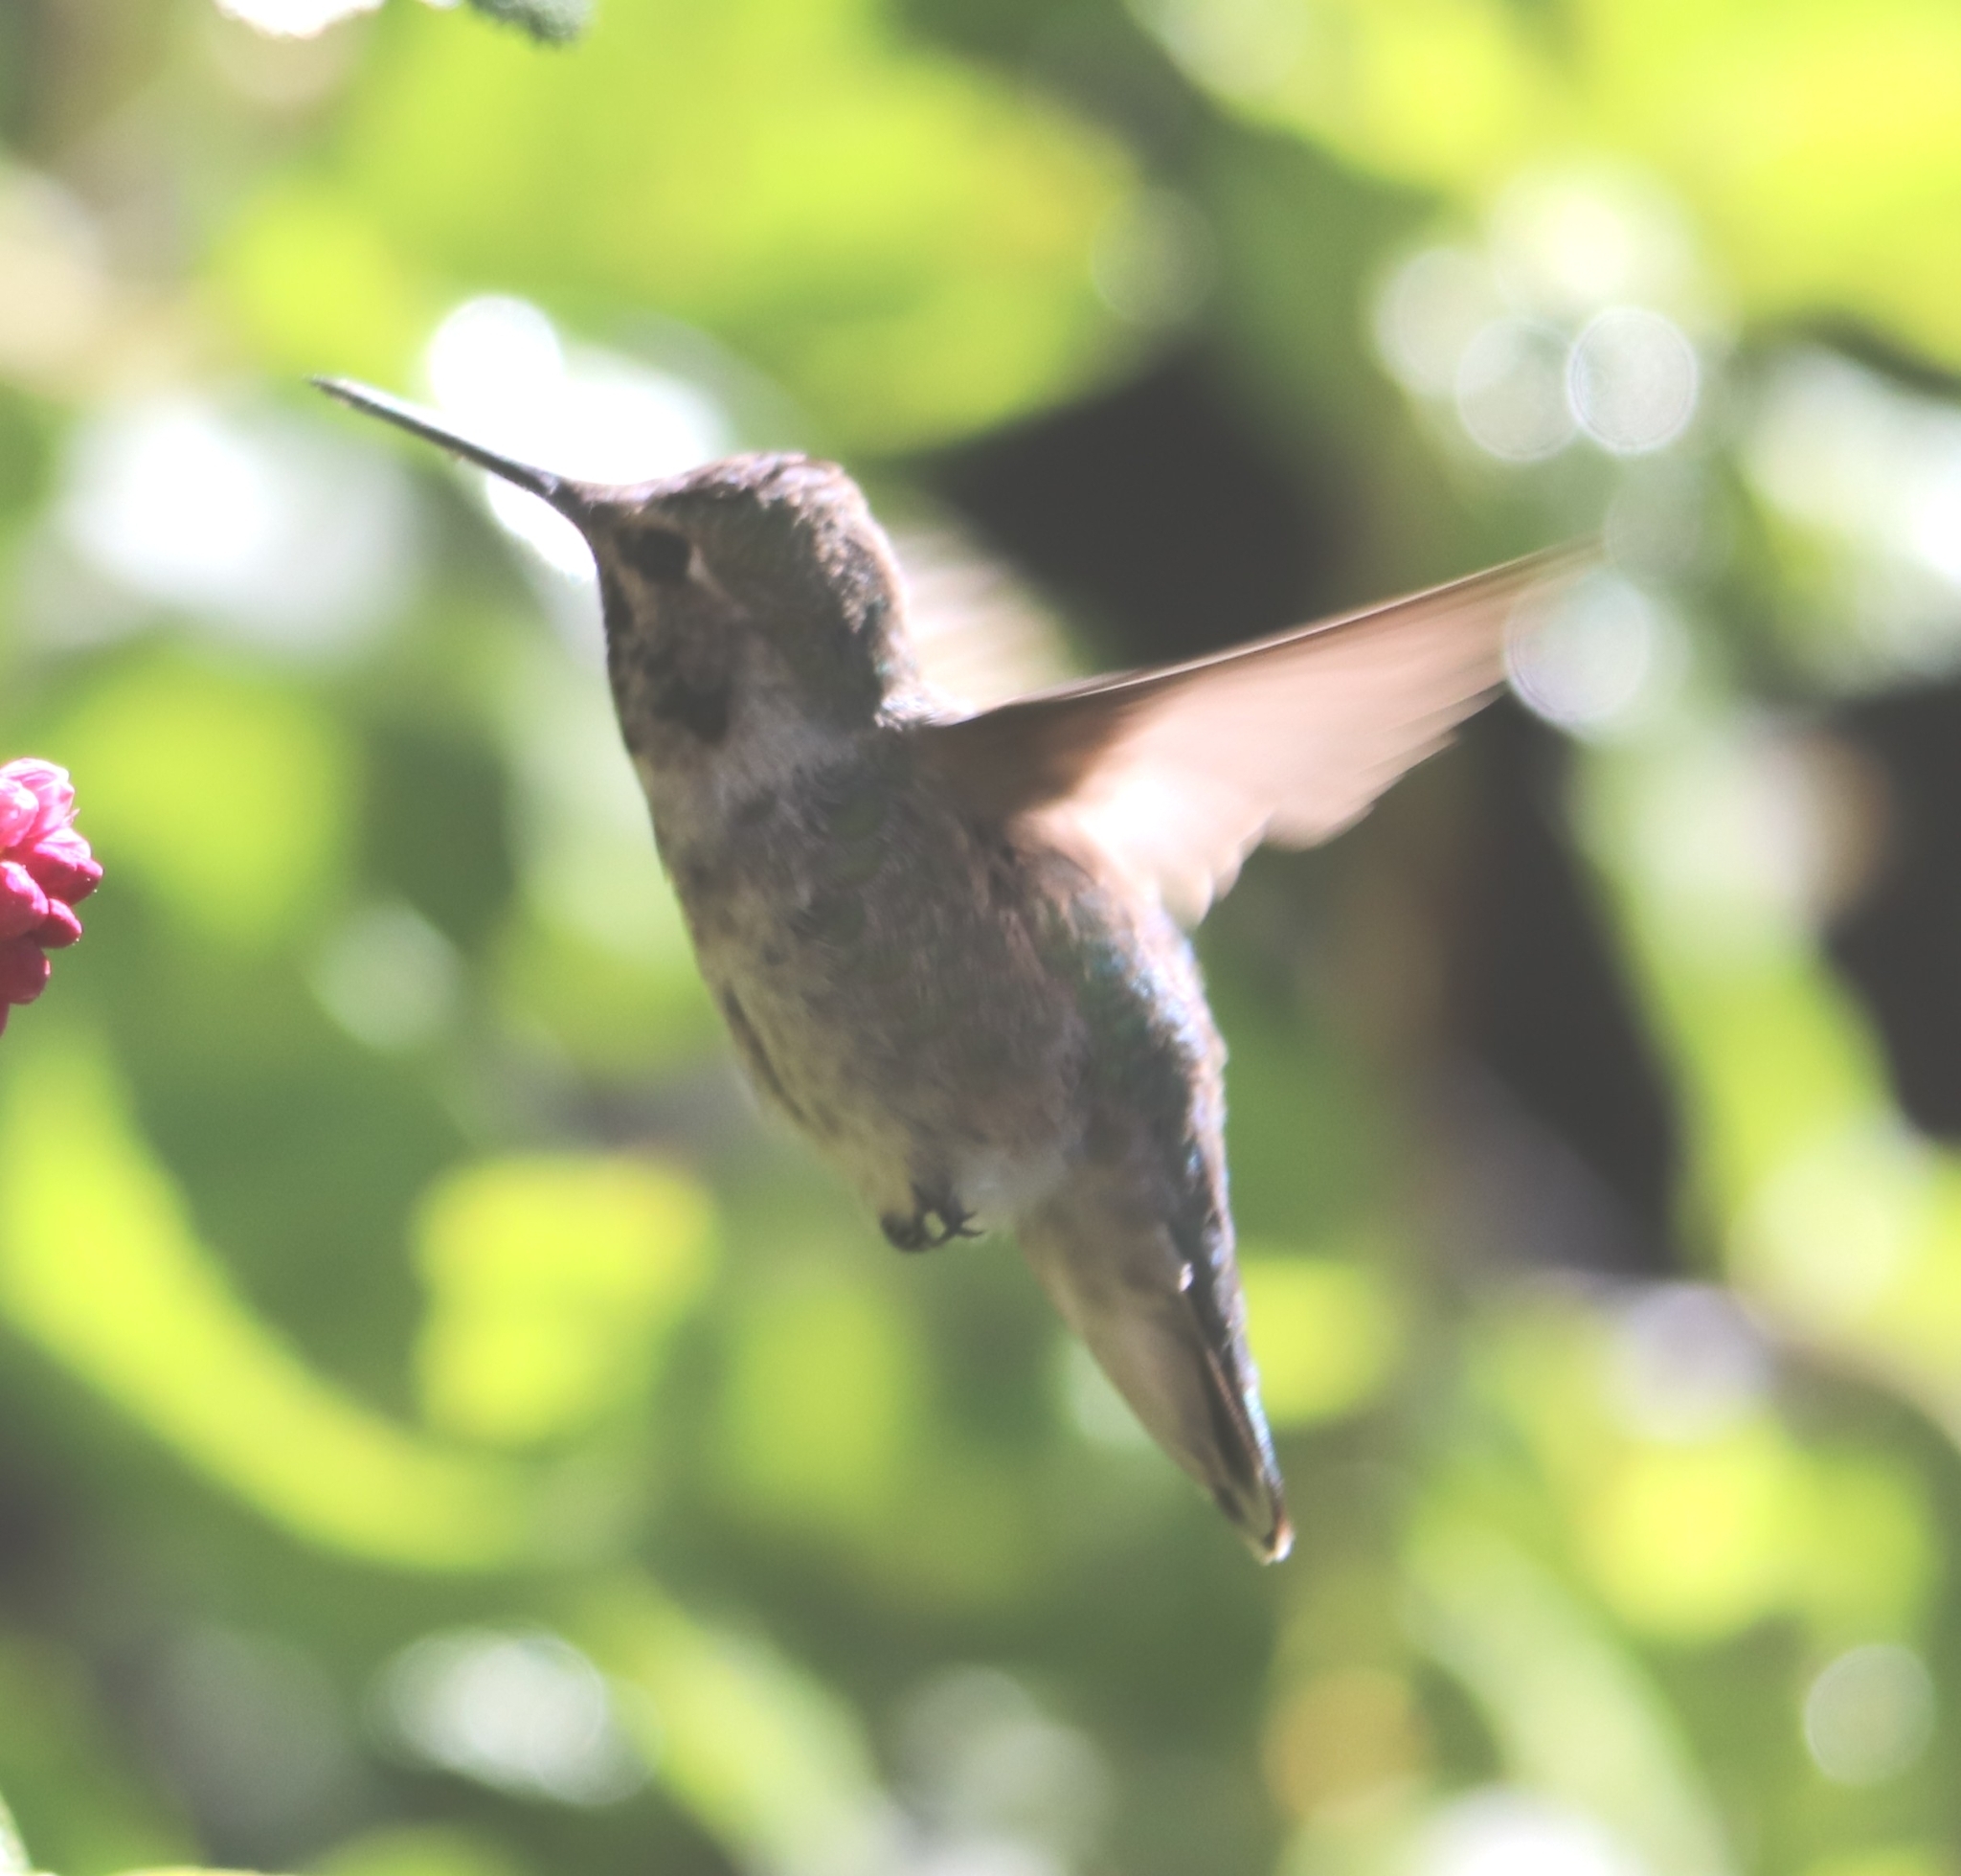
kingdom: Animalia
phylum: Chordata
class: Aves
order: Apodiformes
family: Trochilidae
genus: Calypte
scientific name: Calypte anna
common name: Anna's hummingbird
